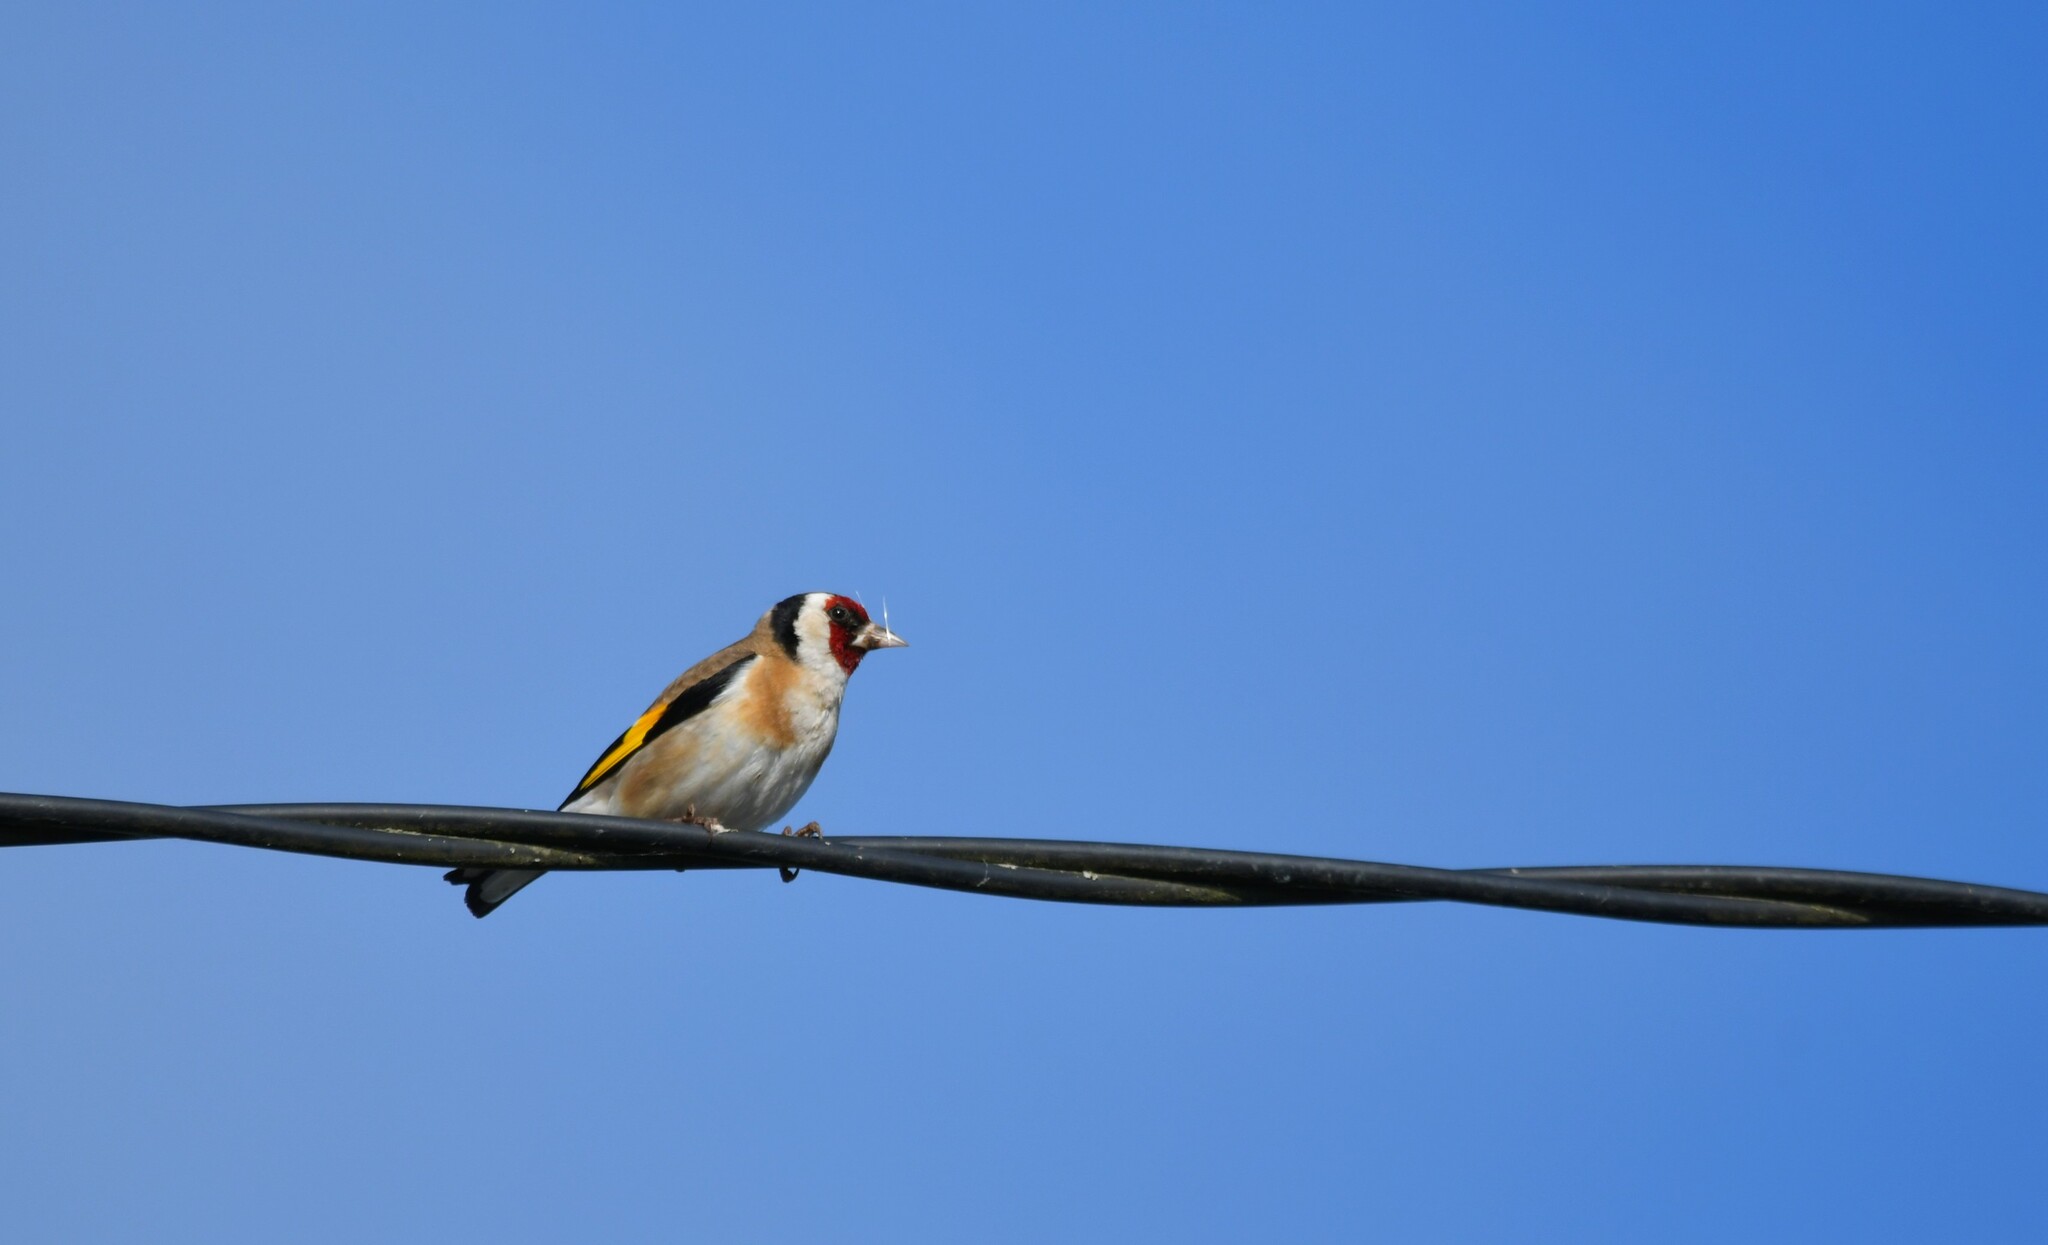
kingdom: Animalia
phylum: Chordata
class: Aves
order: Passeriformes
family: Fringillidae
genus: Carduelis
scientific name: Carduelis carduelis
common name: European goldfinch
